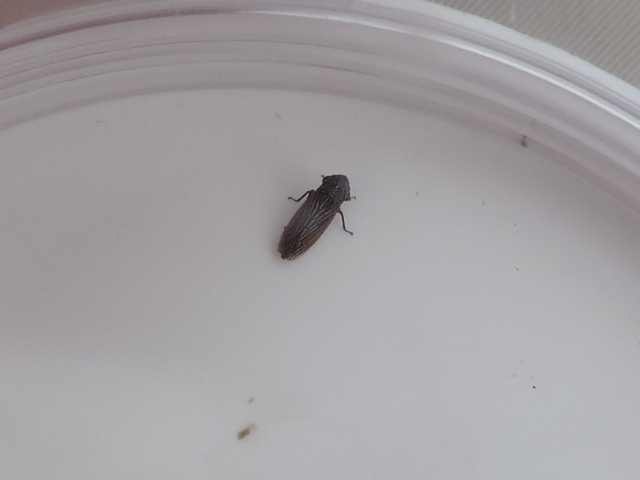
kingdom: Animalia
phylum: Arthropoda
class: Insecta
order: Hemiptera
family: Cicadellidae
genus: Cuerna
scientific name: Cuerna costalis
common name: Lateral-lined sharpshooter
